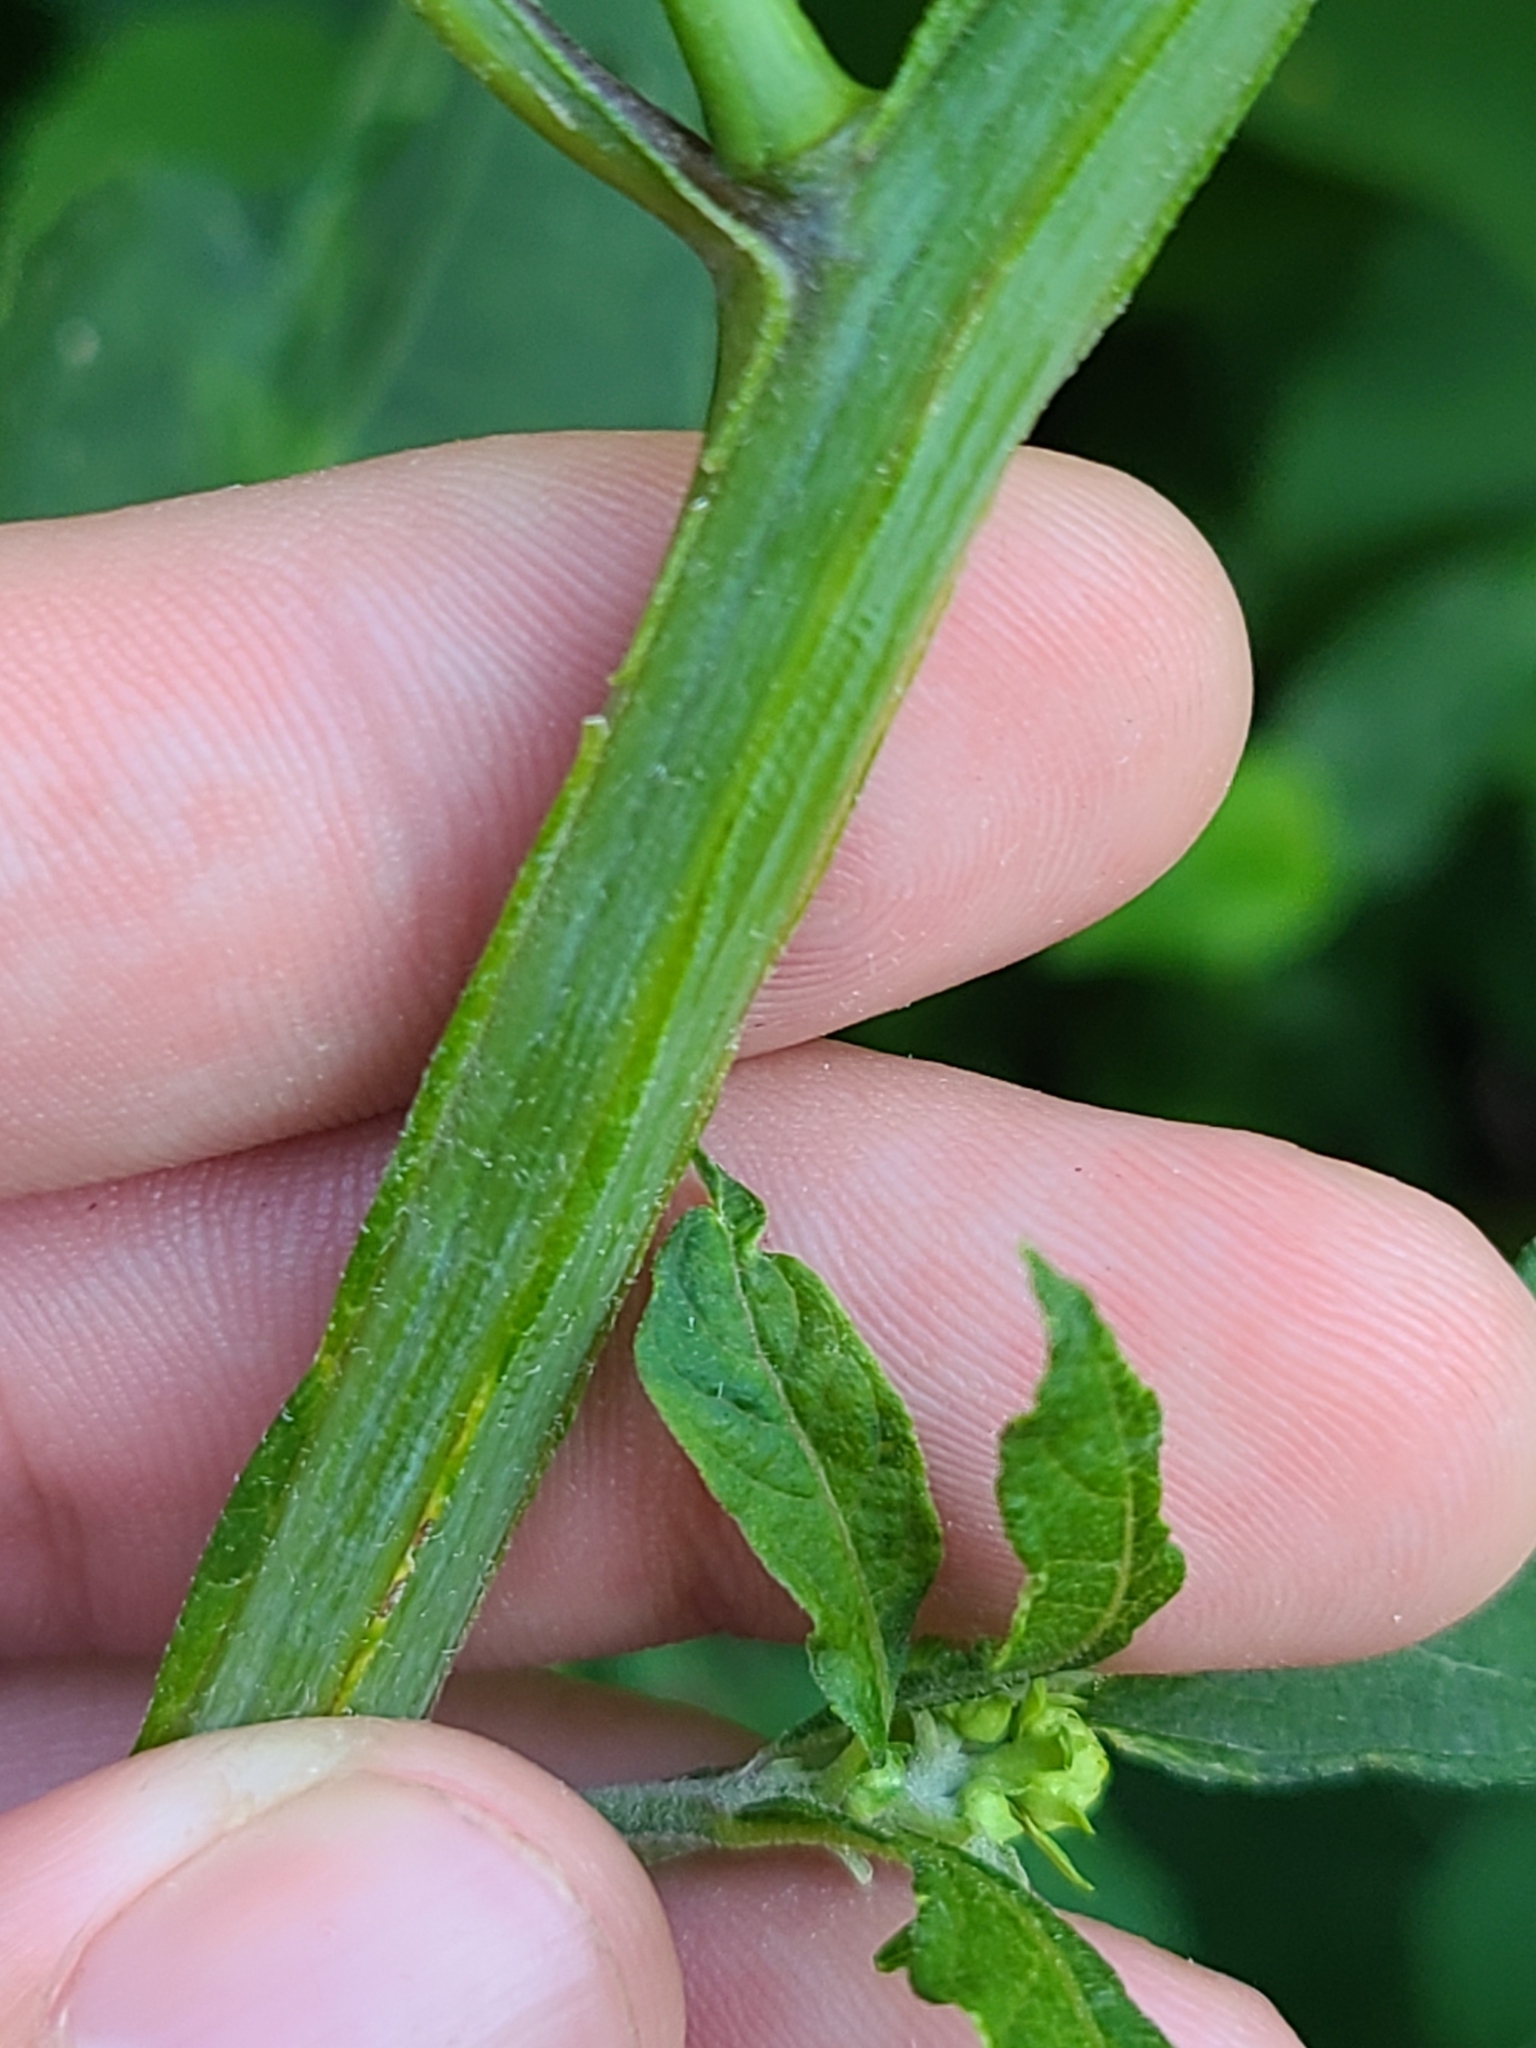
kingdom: Plantae
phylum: Tracheophyta
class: Magnoliopsida
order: Asterales
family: Asteraceae
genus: Verbesina
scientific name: Verbesina alternifolia
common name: Wingstem
